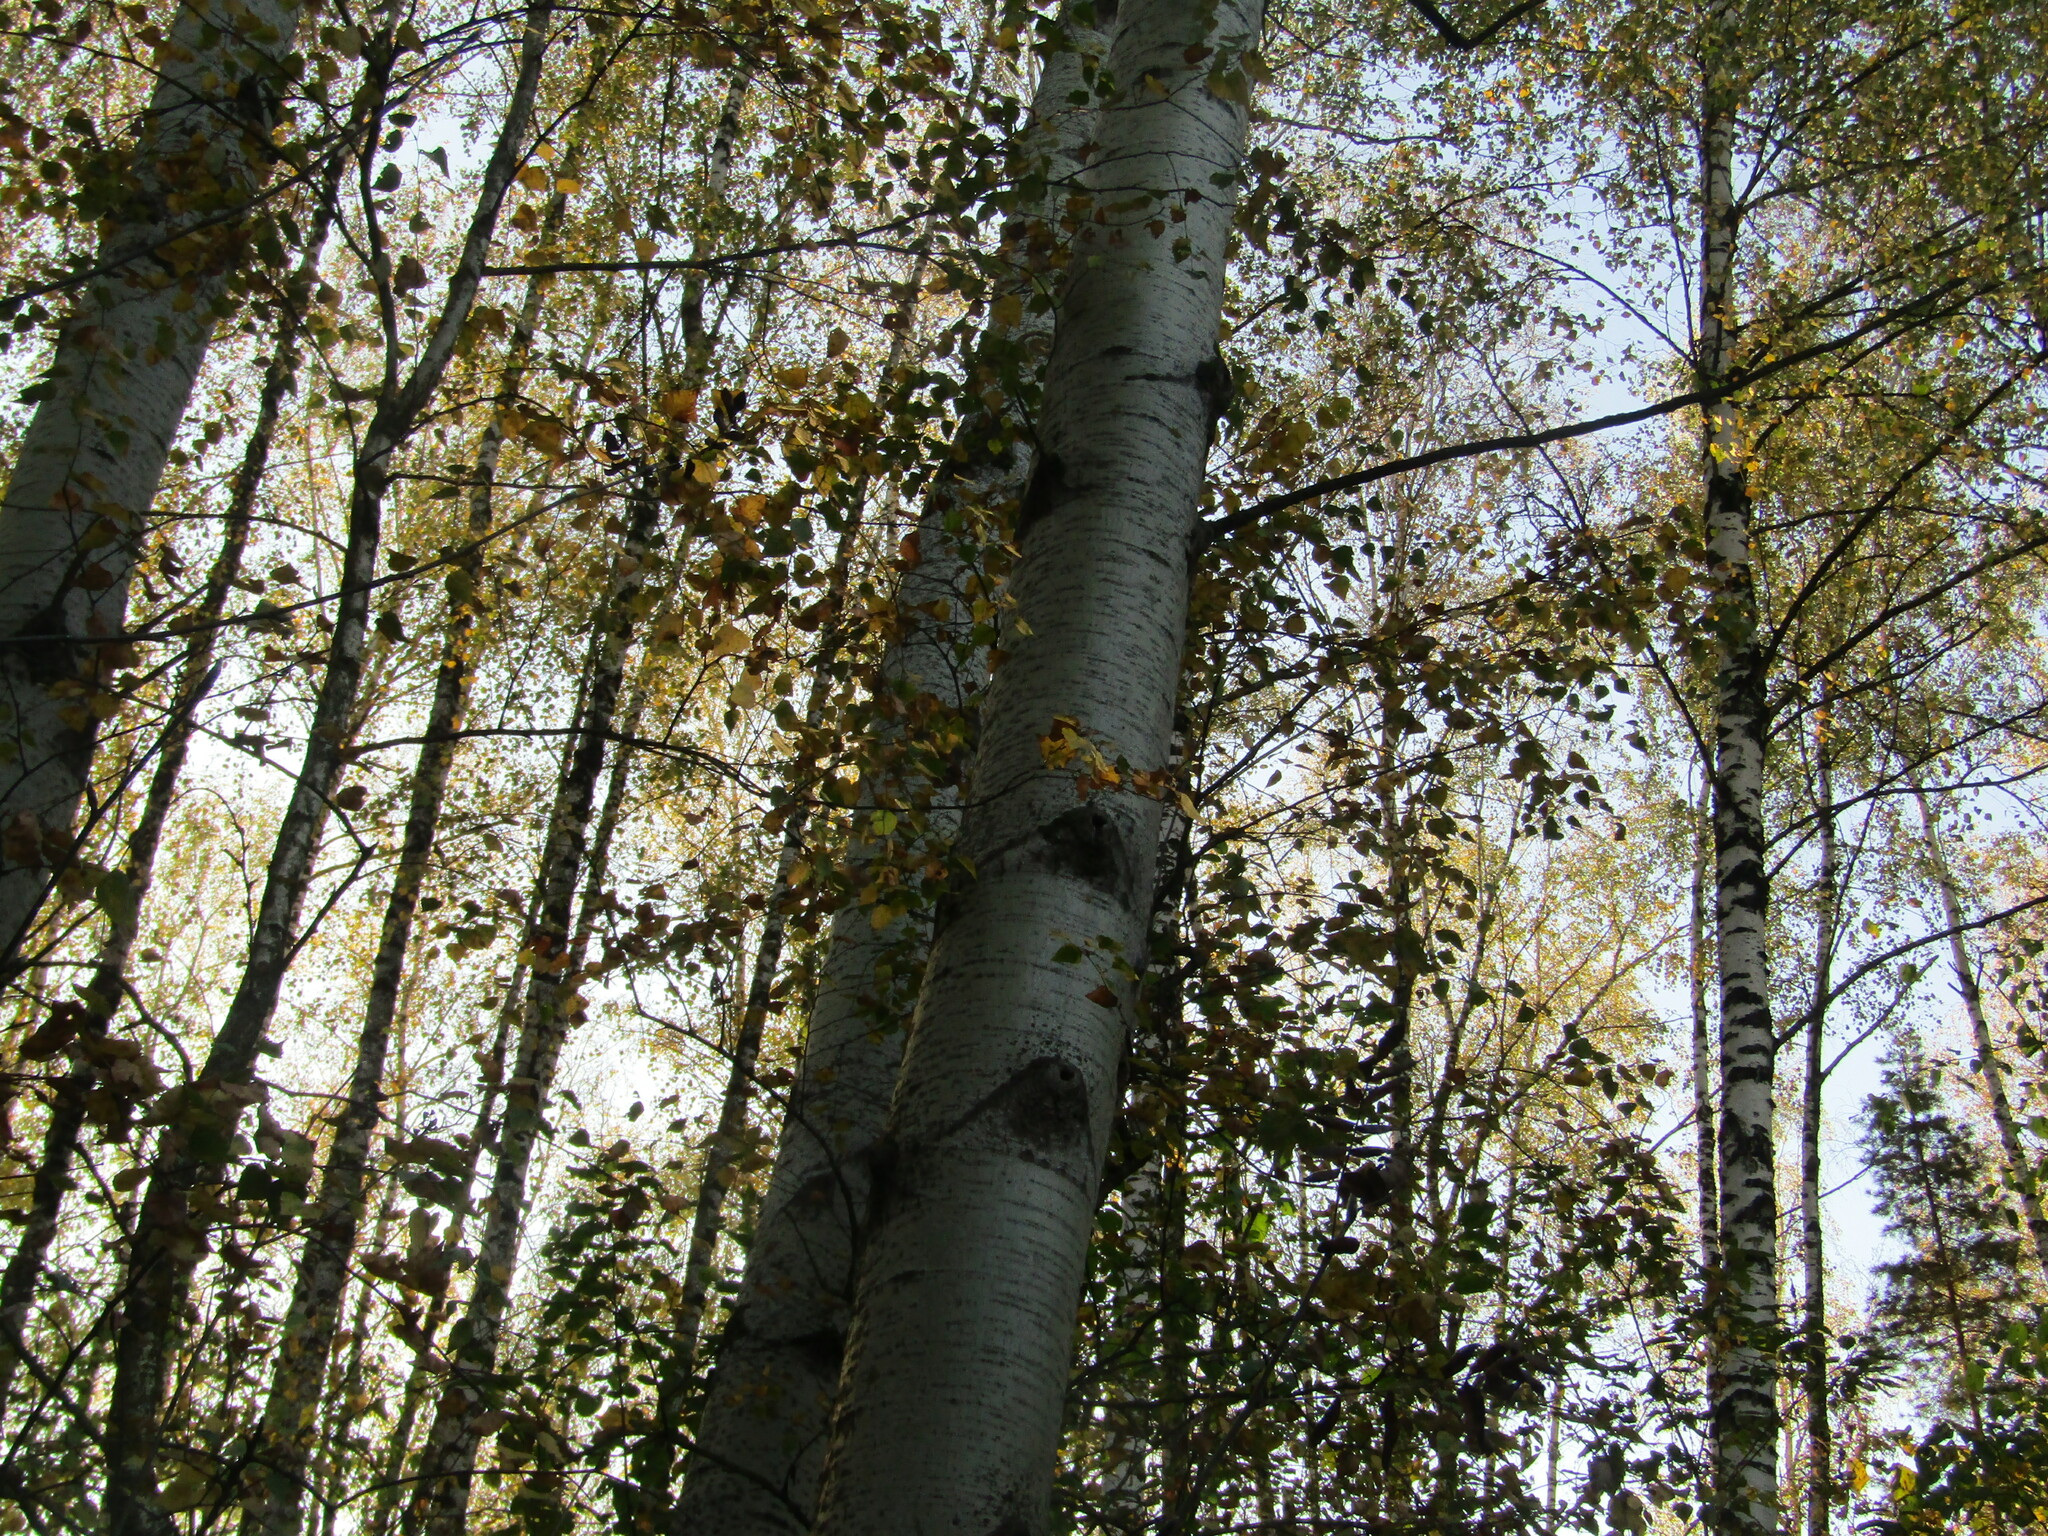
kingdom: Plantae
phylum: Tracheophyta
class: Magnoliopsida
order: Malpighiales
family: Salicaceae
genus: Populus
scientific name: Populus tremula
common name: European aspen
